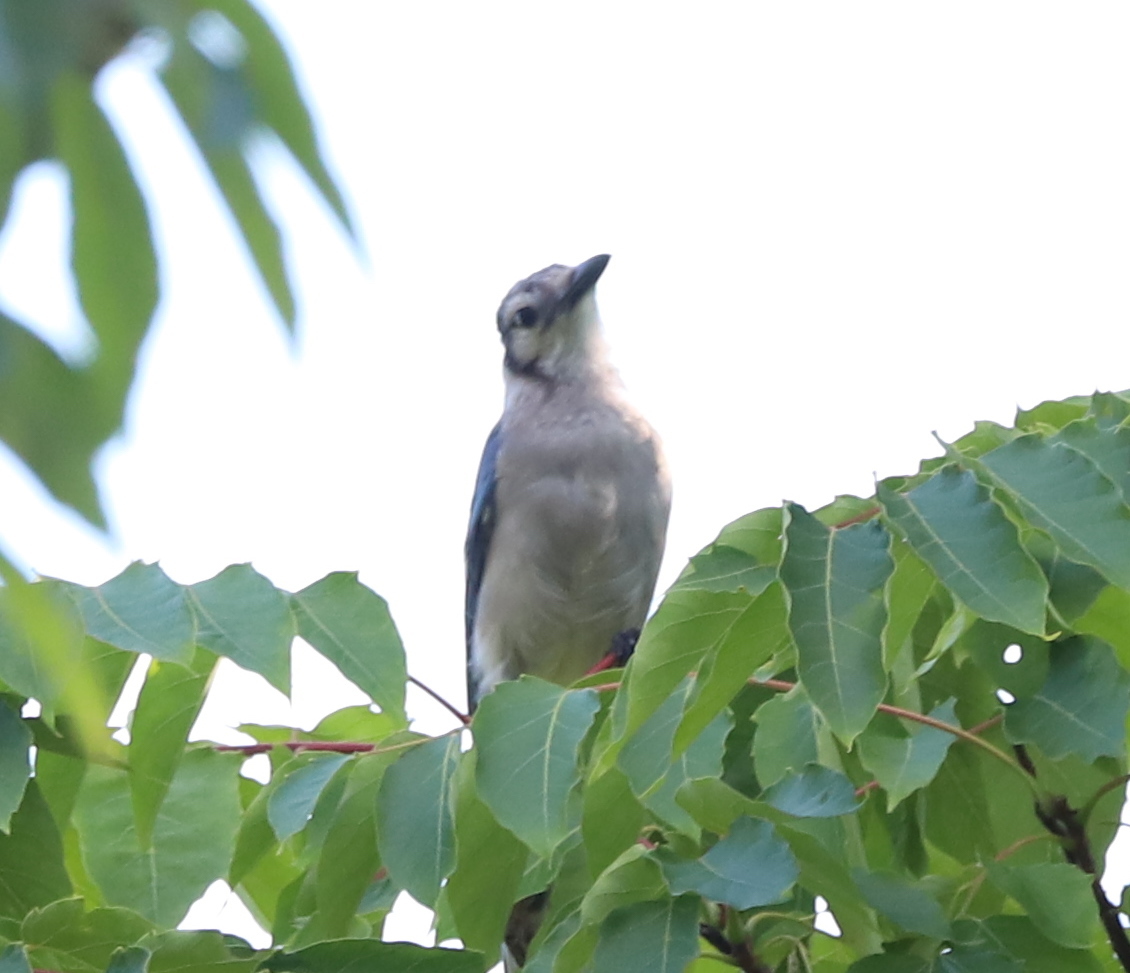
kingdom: Animalia
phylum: Chordata
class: Aves
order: Passeriformes
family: Corvidae
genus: Cyanocitta
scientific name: Cyanocitta cristata
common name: Blue jay
